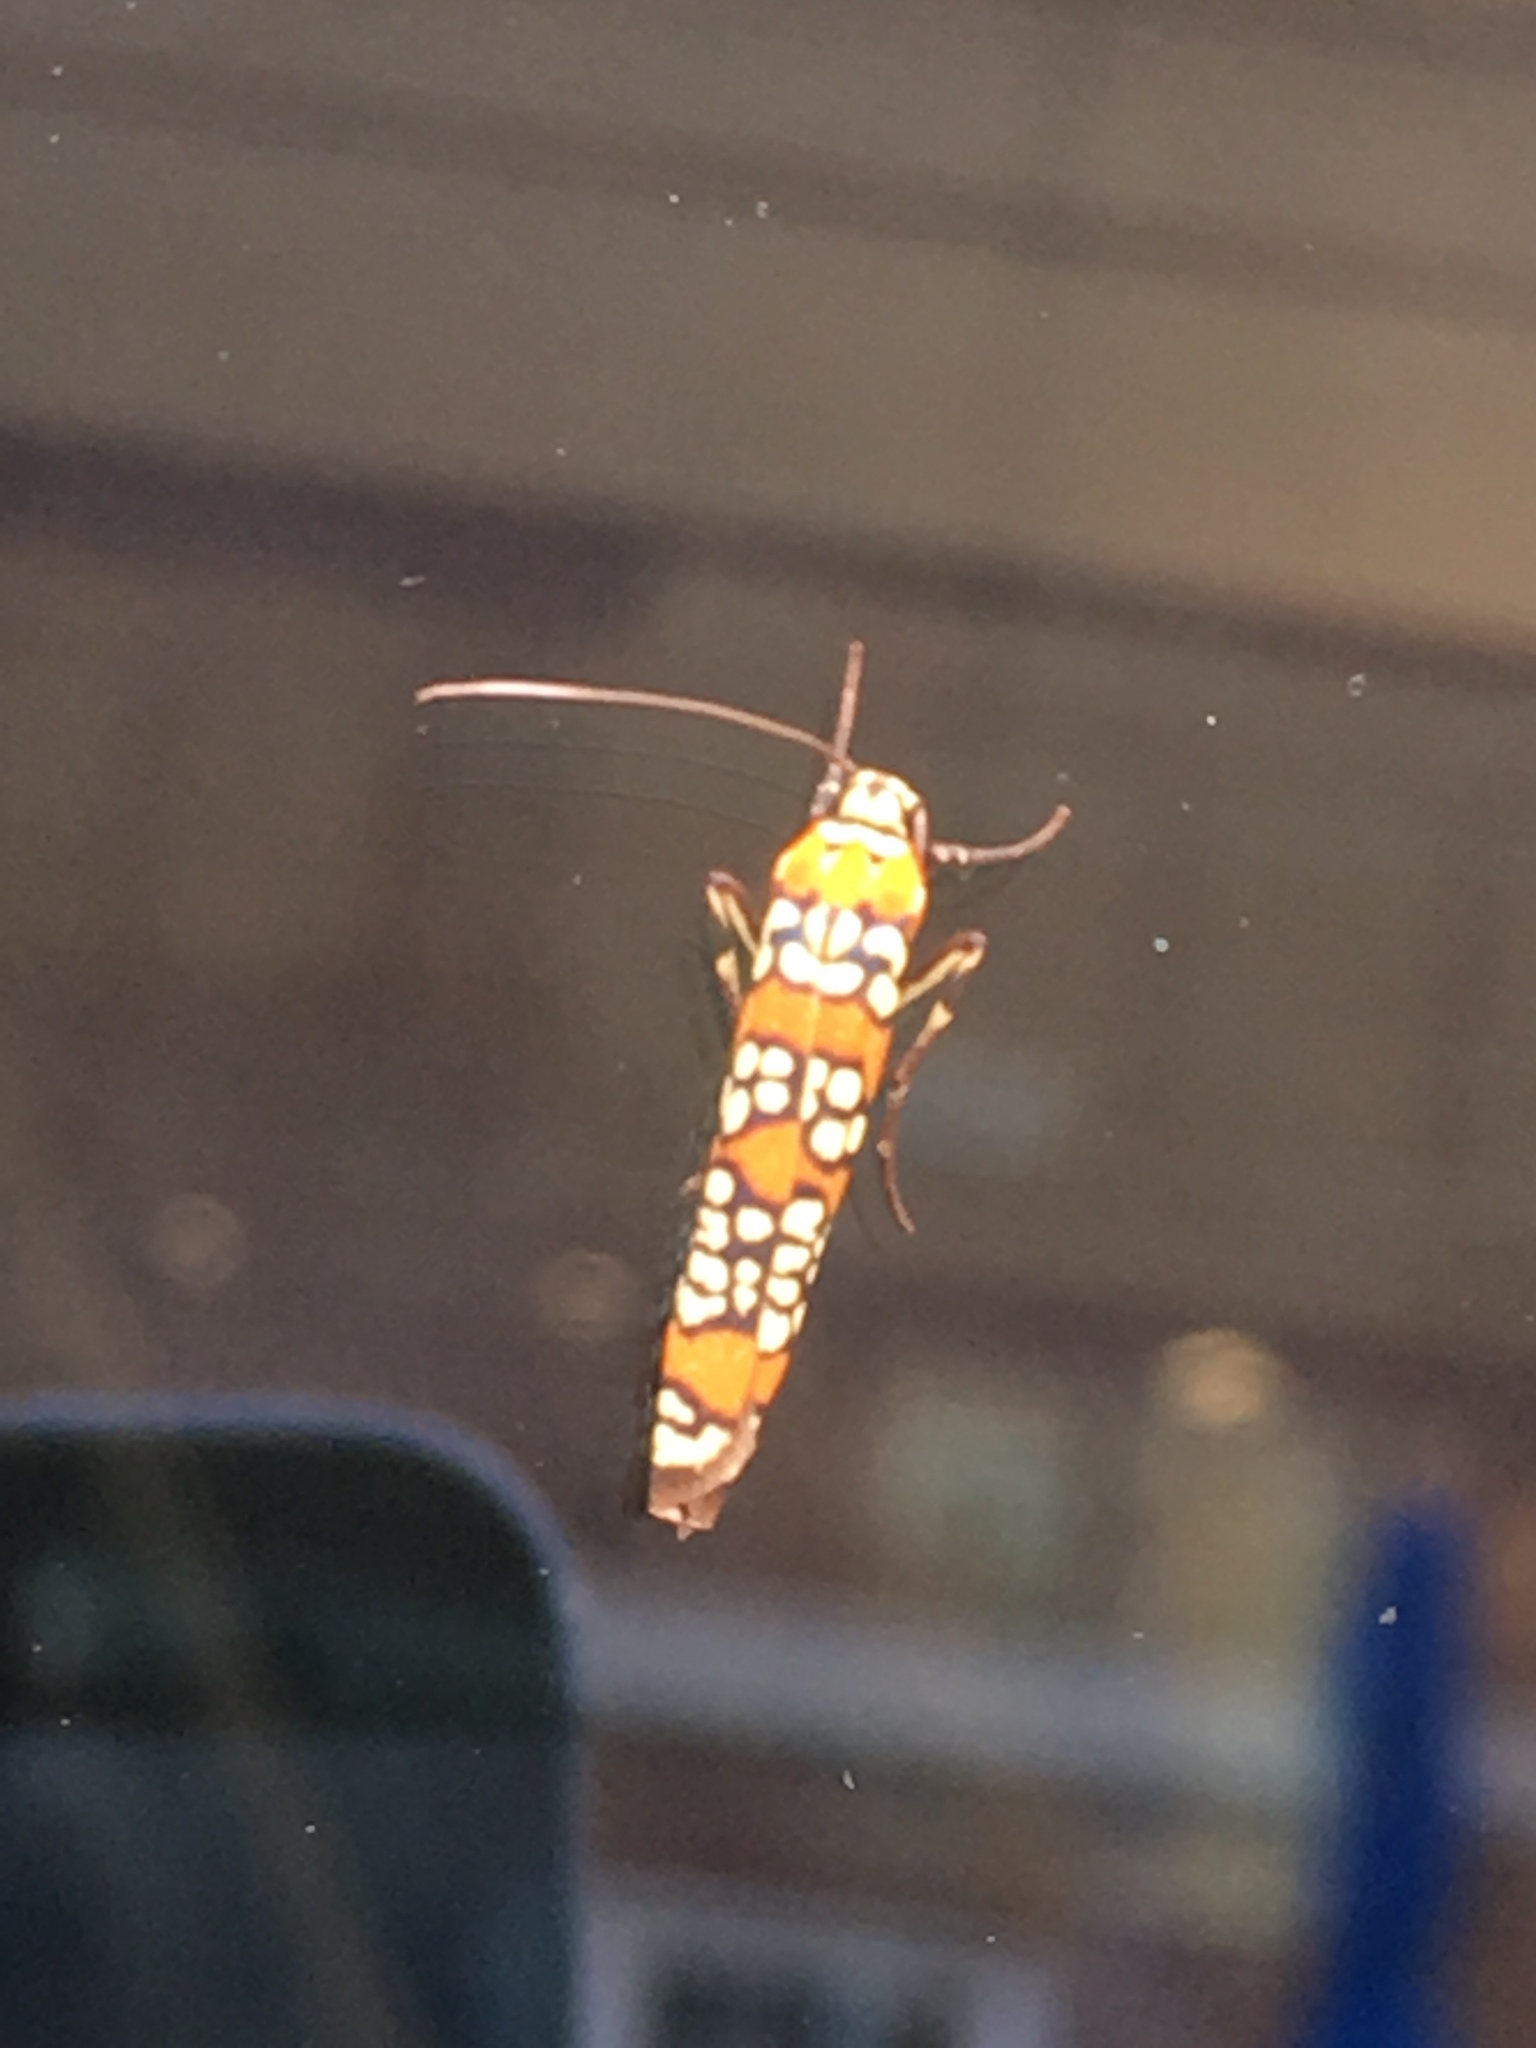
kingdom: Animalia
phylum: Arthropoda
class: Insecta
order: Lepidoptera
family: Attevidae
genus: Atteva
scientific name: Atteva punctella
